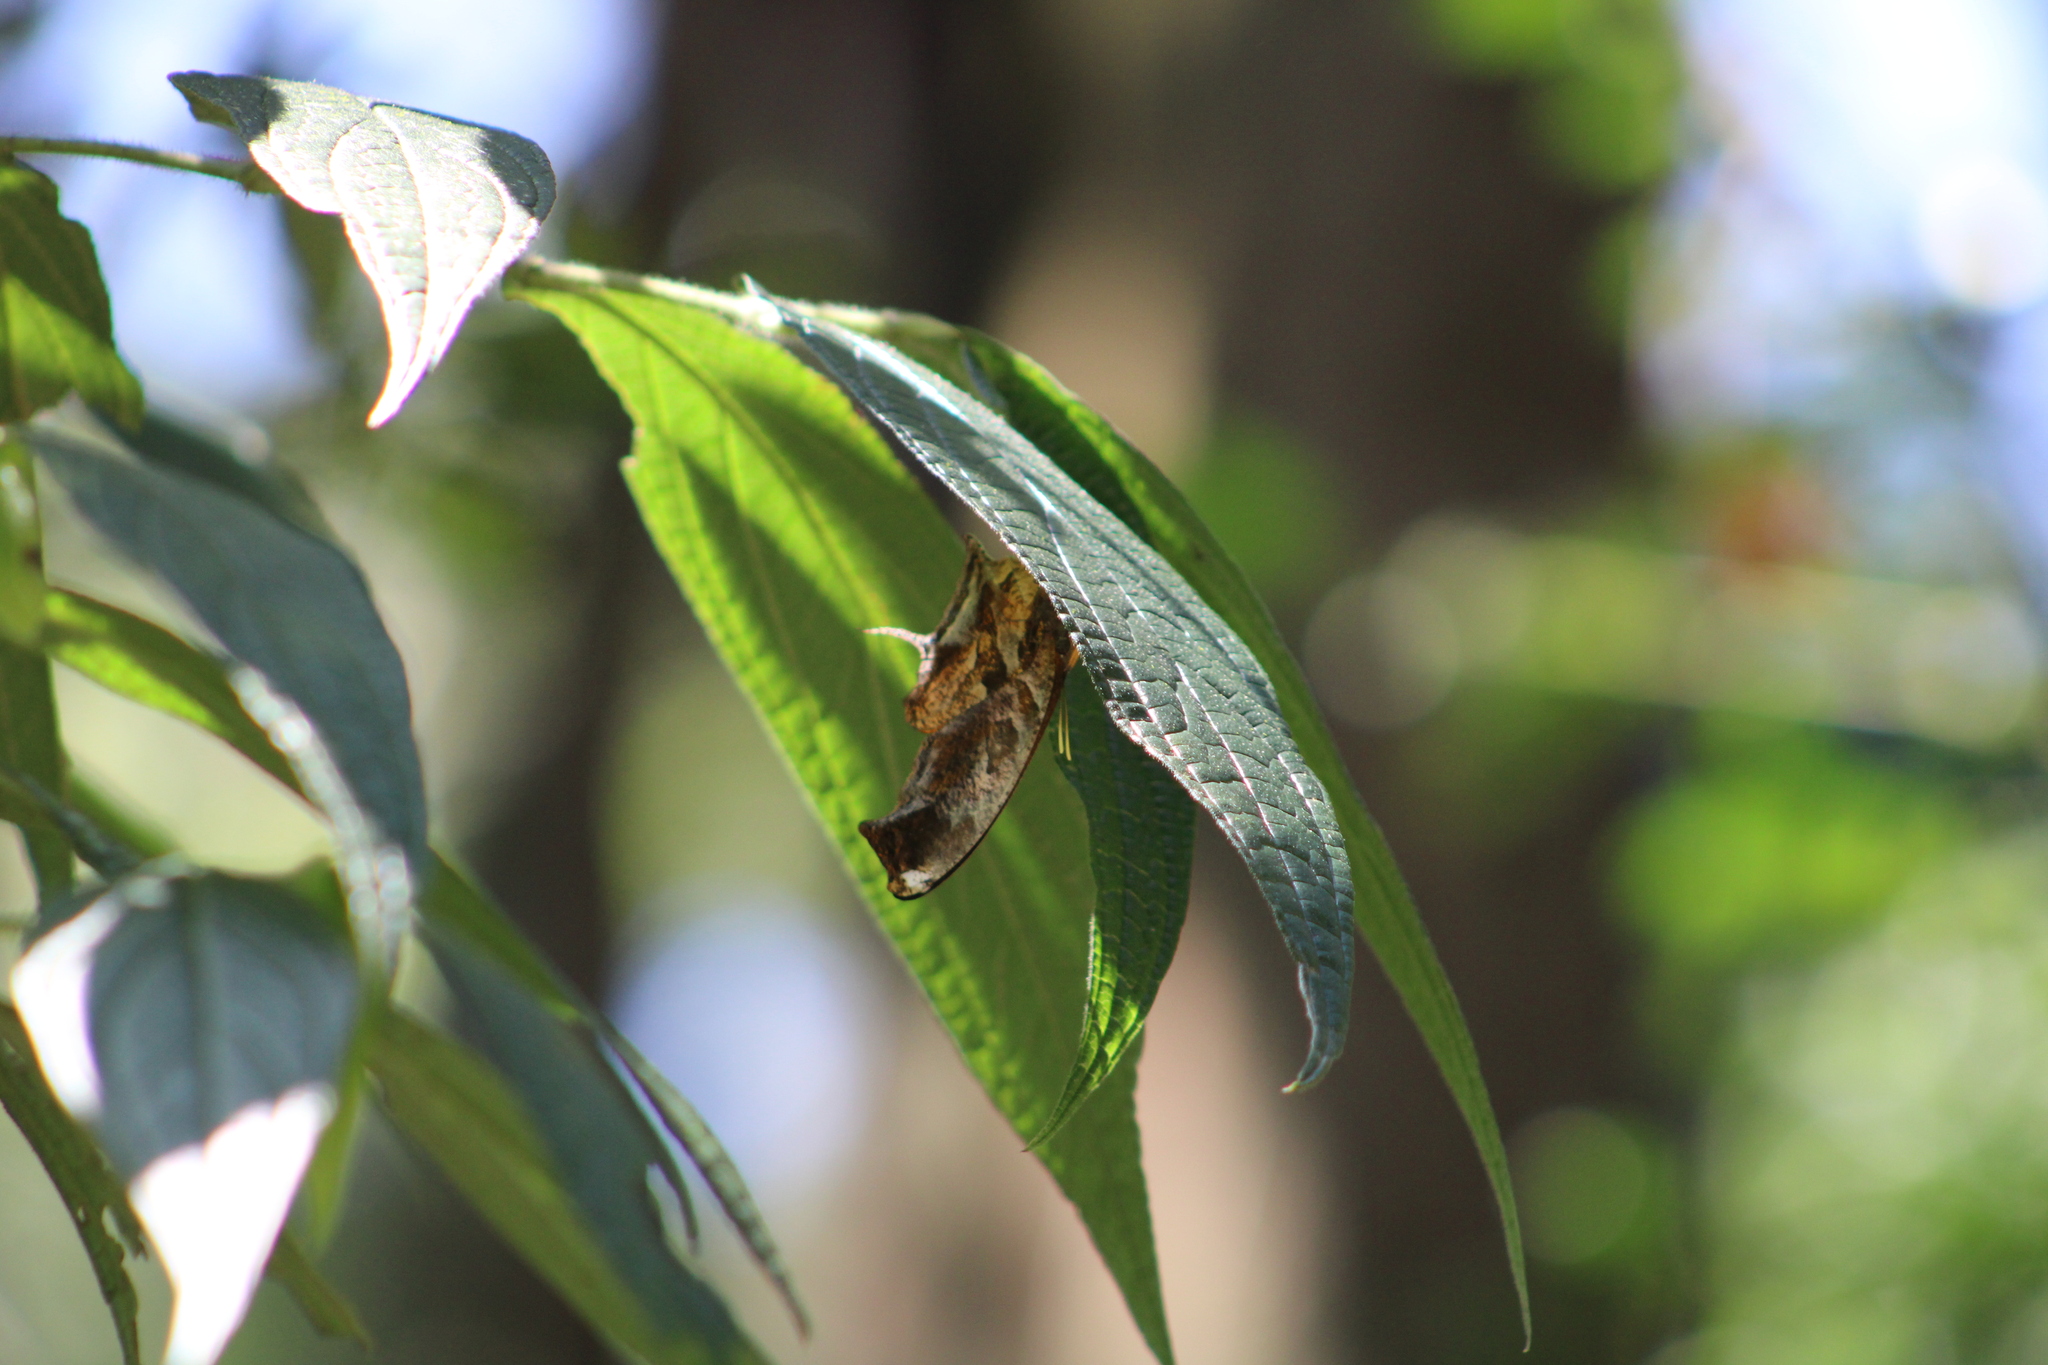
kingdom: Animalia
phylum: Arthropoda
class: Insecta
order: Lepidoptera
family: Nymphalidae
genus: Consul
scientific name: Consul fabius
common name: Tiger leafwing
